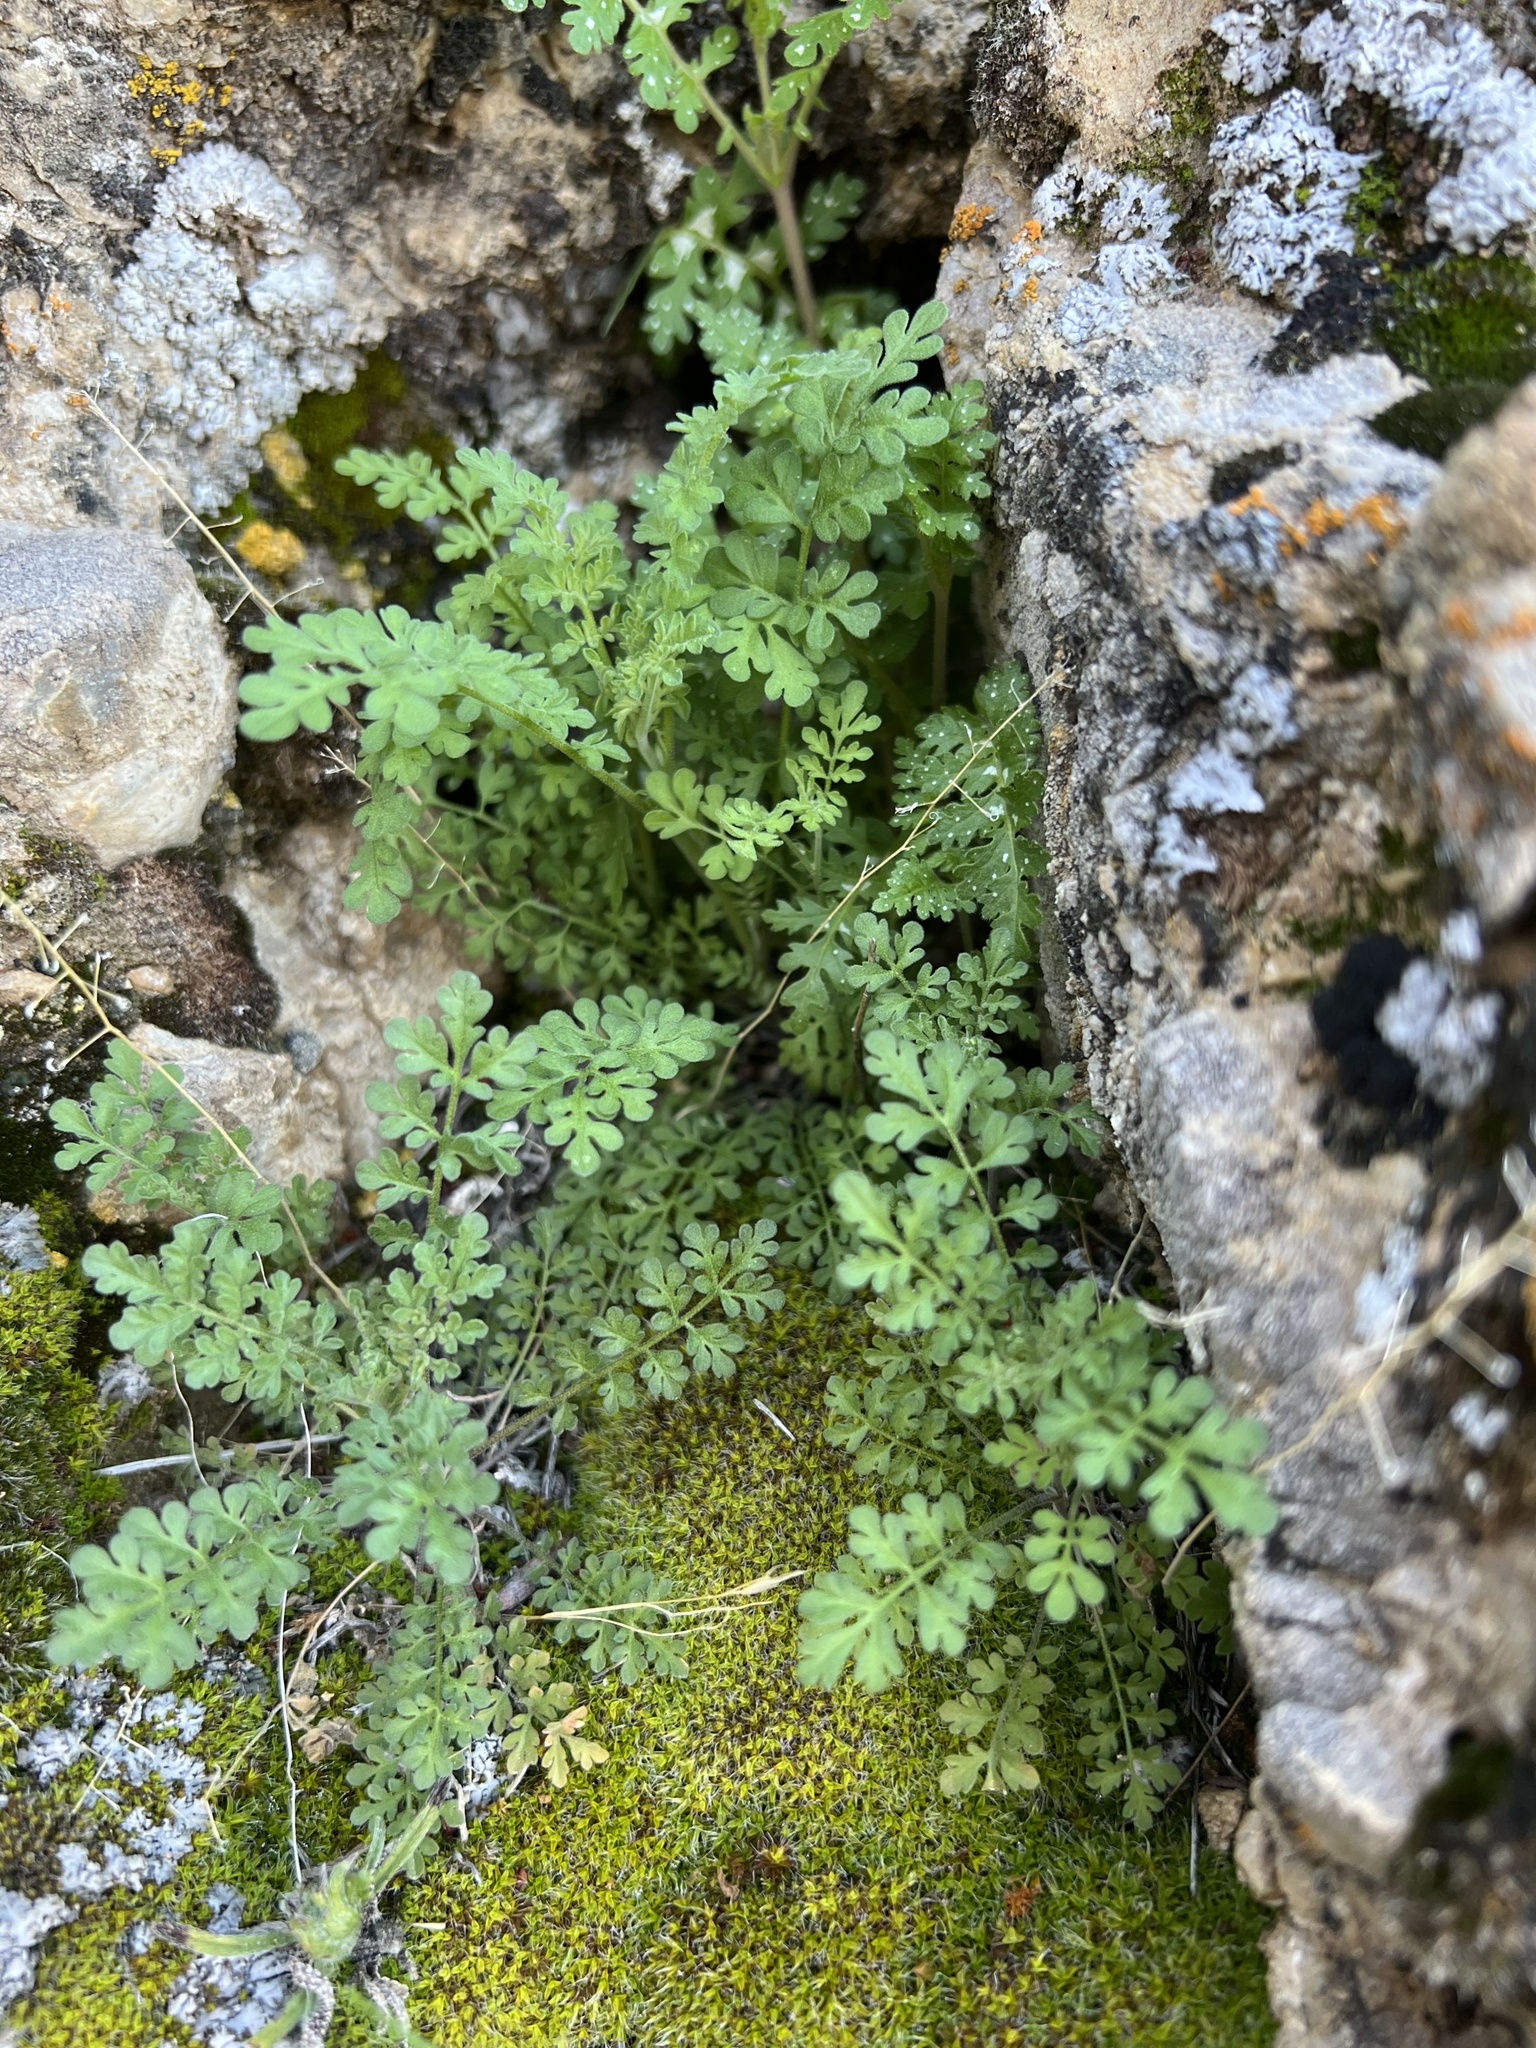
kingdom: Plantae
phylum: Tracheophyta
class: Magnoliopsida
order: Boraginales
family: Hydrophyllaceae
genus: Eucrypta
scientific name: Eucrypta chrysanthemifolia
